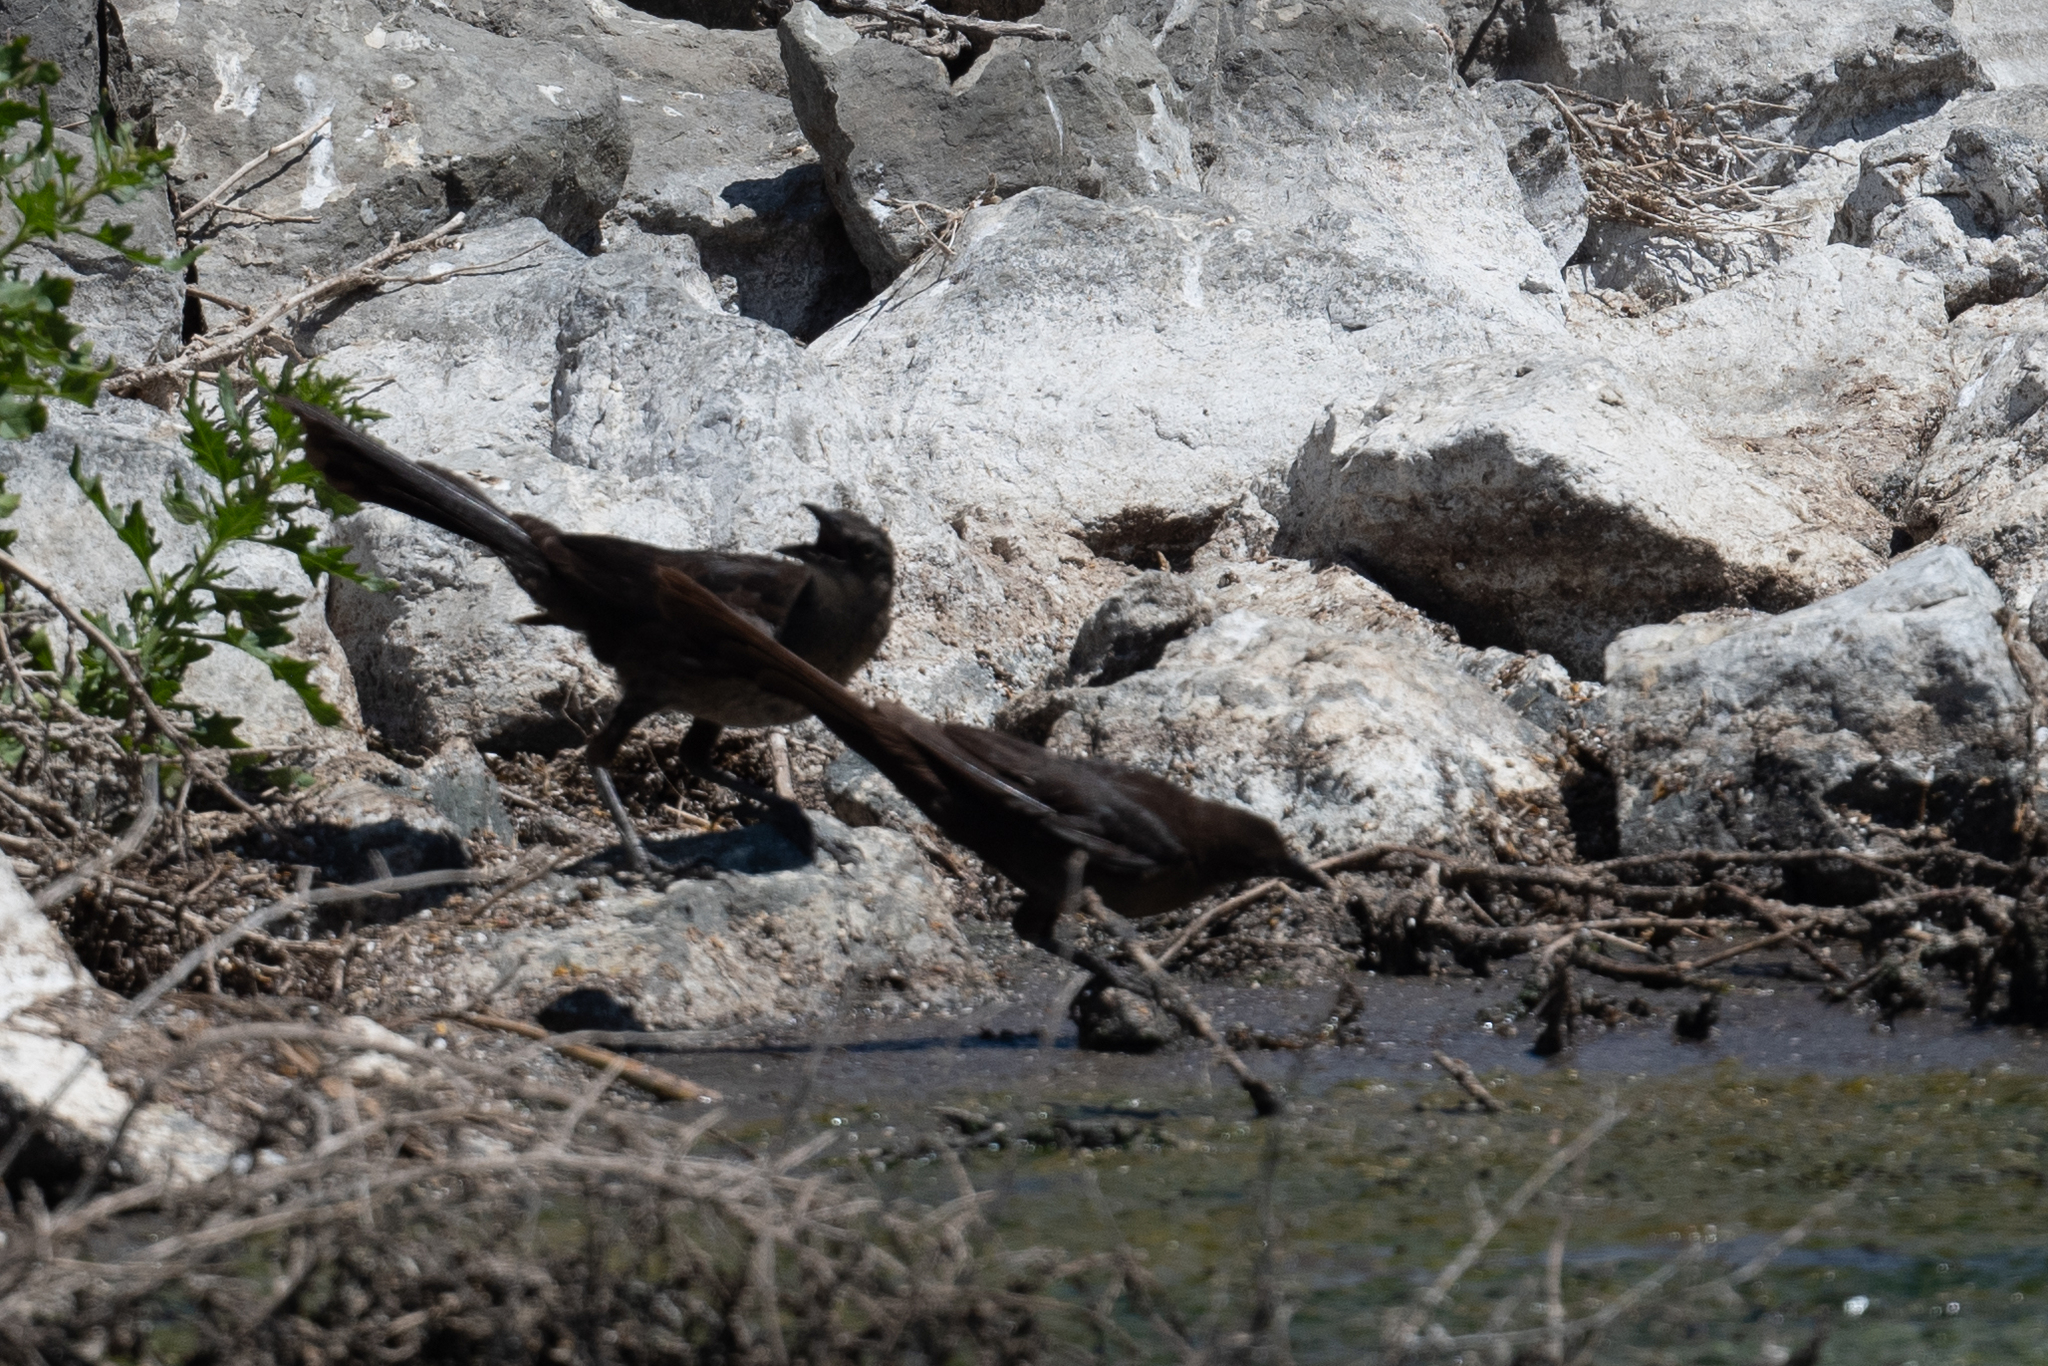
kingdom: Animalia
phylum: Chordata
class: Aves
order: Passeriformes
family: Icteridae
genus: Quiscalus
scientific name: Quiscalus mexicanus
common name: Great-tailed grackle
